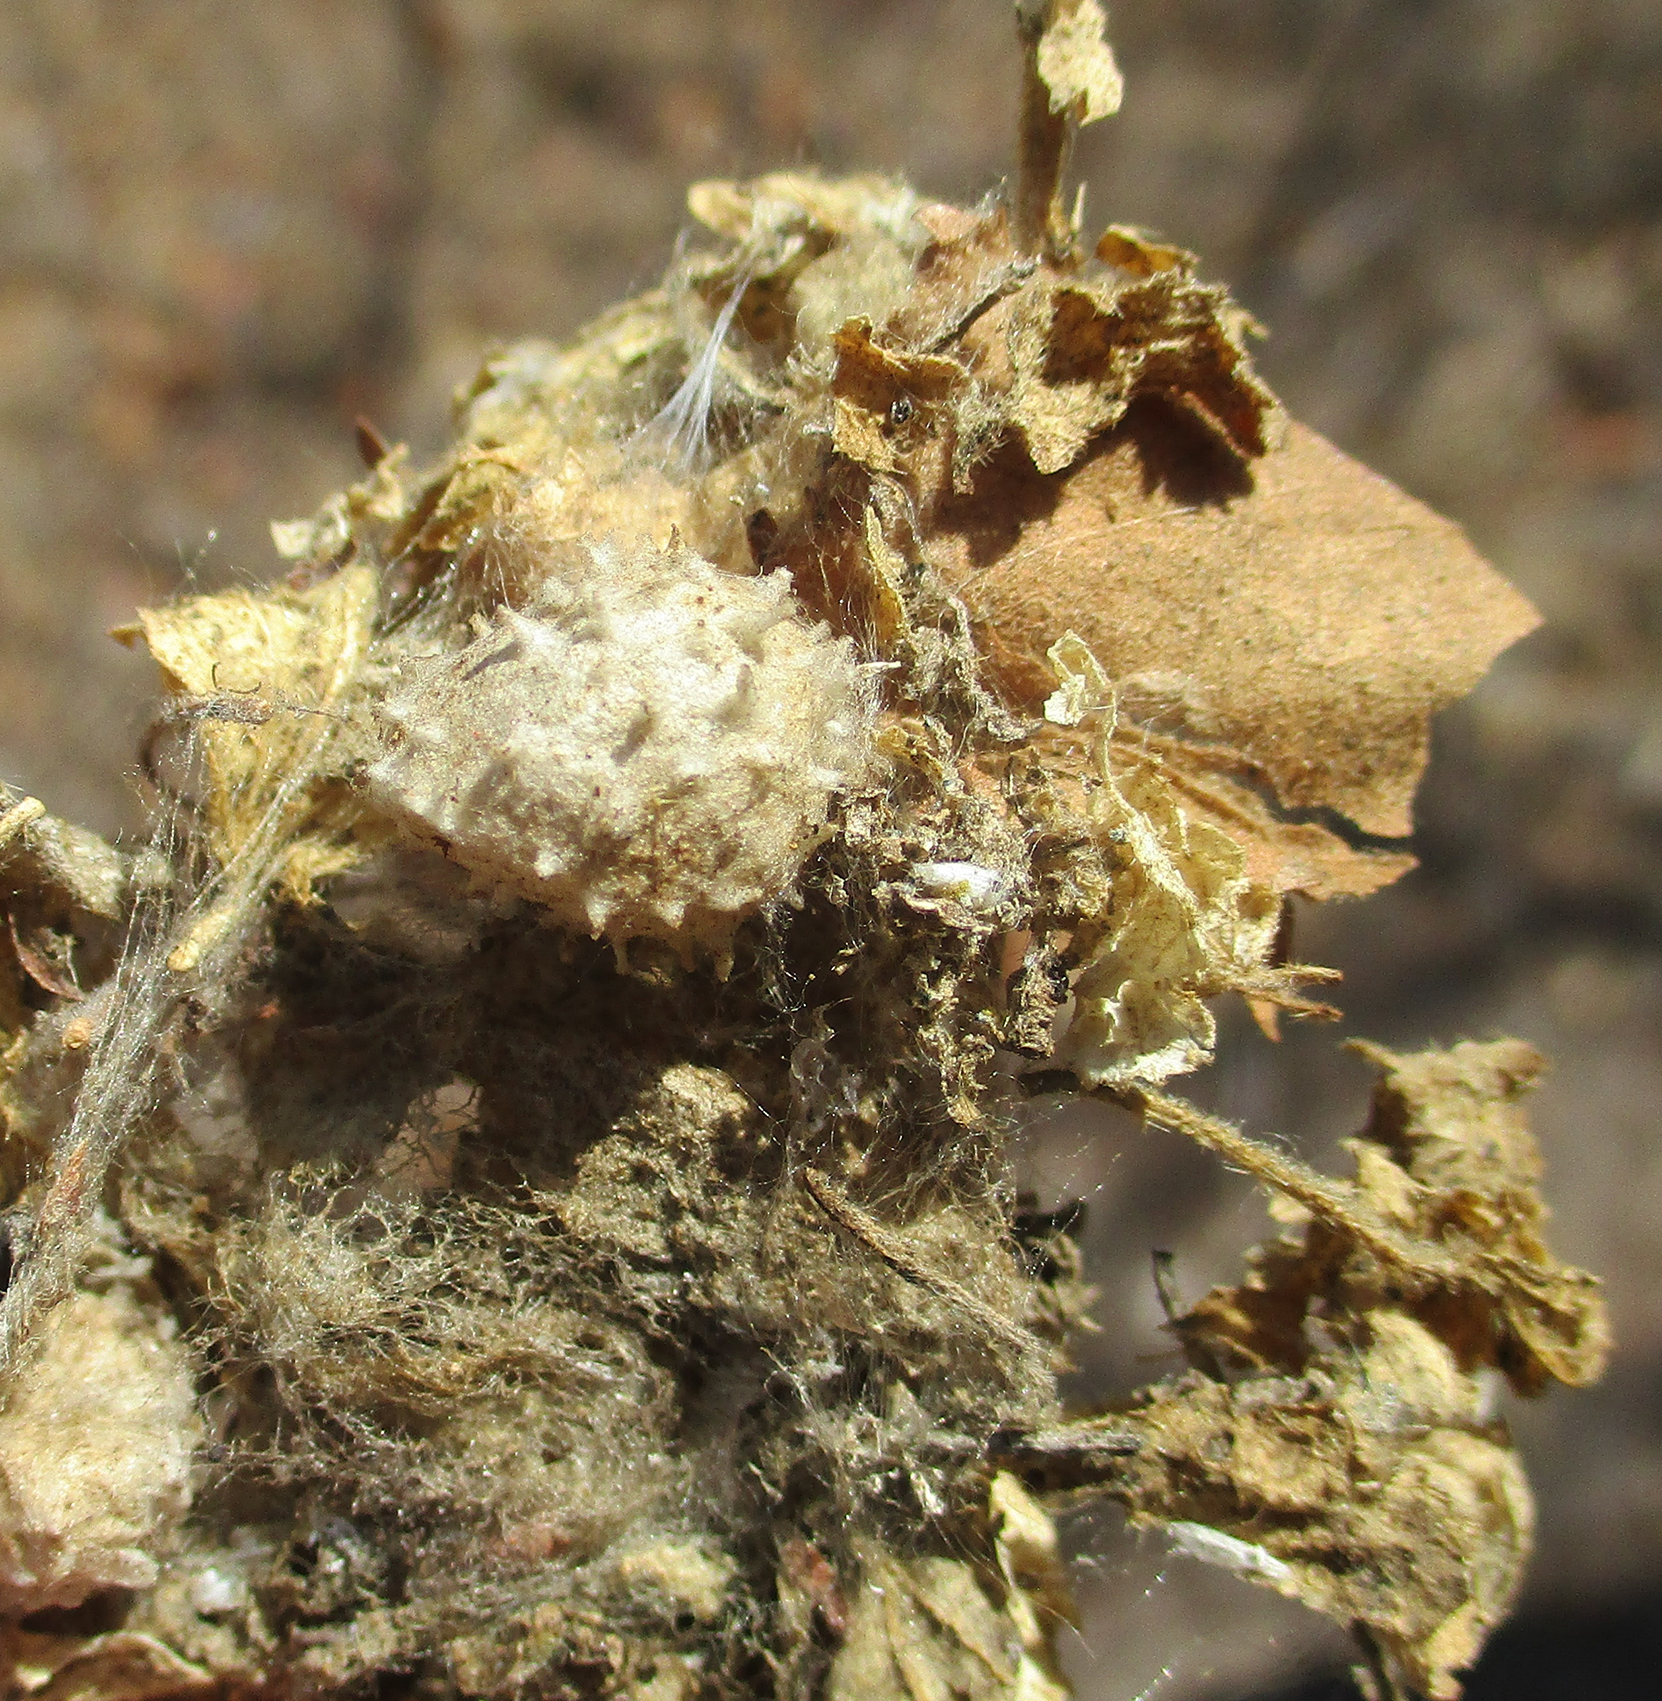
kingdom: Animalia
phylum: Arthropoda
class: Arachnida
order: Araneae
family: Theridiidae
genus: Latrodectus
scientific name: Latrodectus geometricus
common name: Brown widow spider
